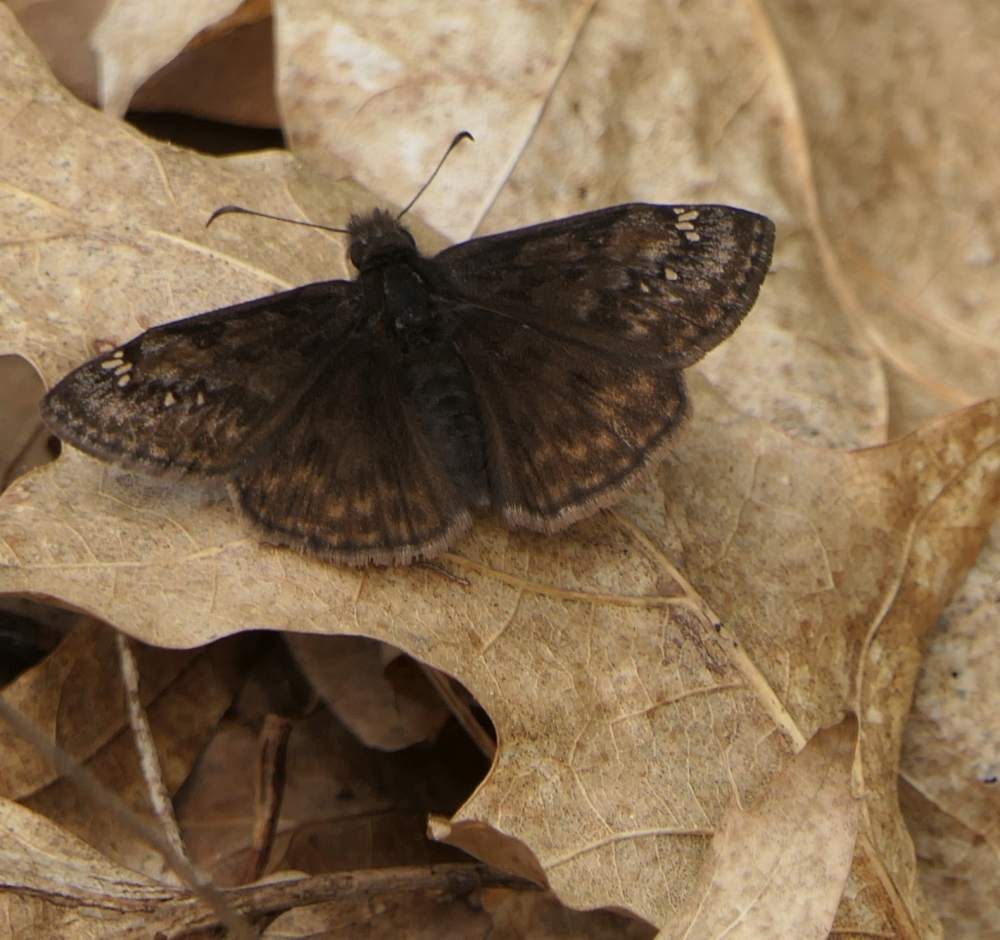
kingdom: Animalia
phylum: Arthropoda
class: Insecta
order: Lepidoptera
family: Hesperiidae
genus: Erynnis
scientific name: Erynnis juvenalis
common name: Juvenal's duskywing
